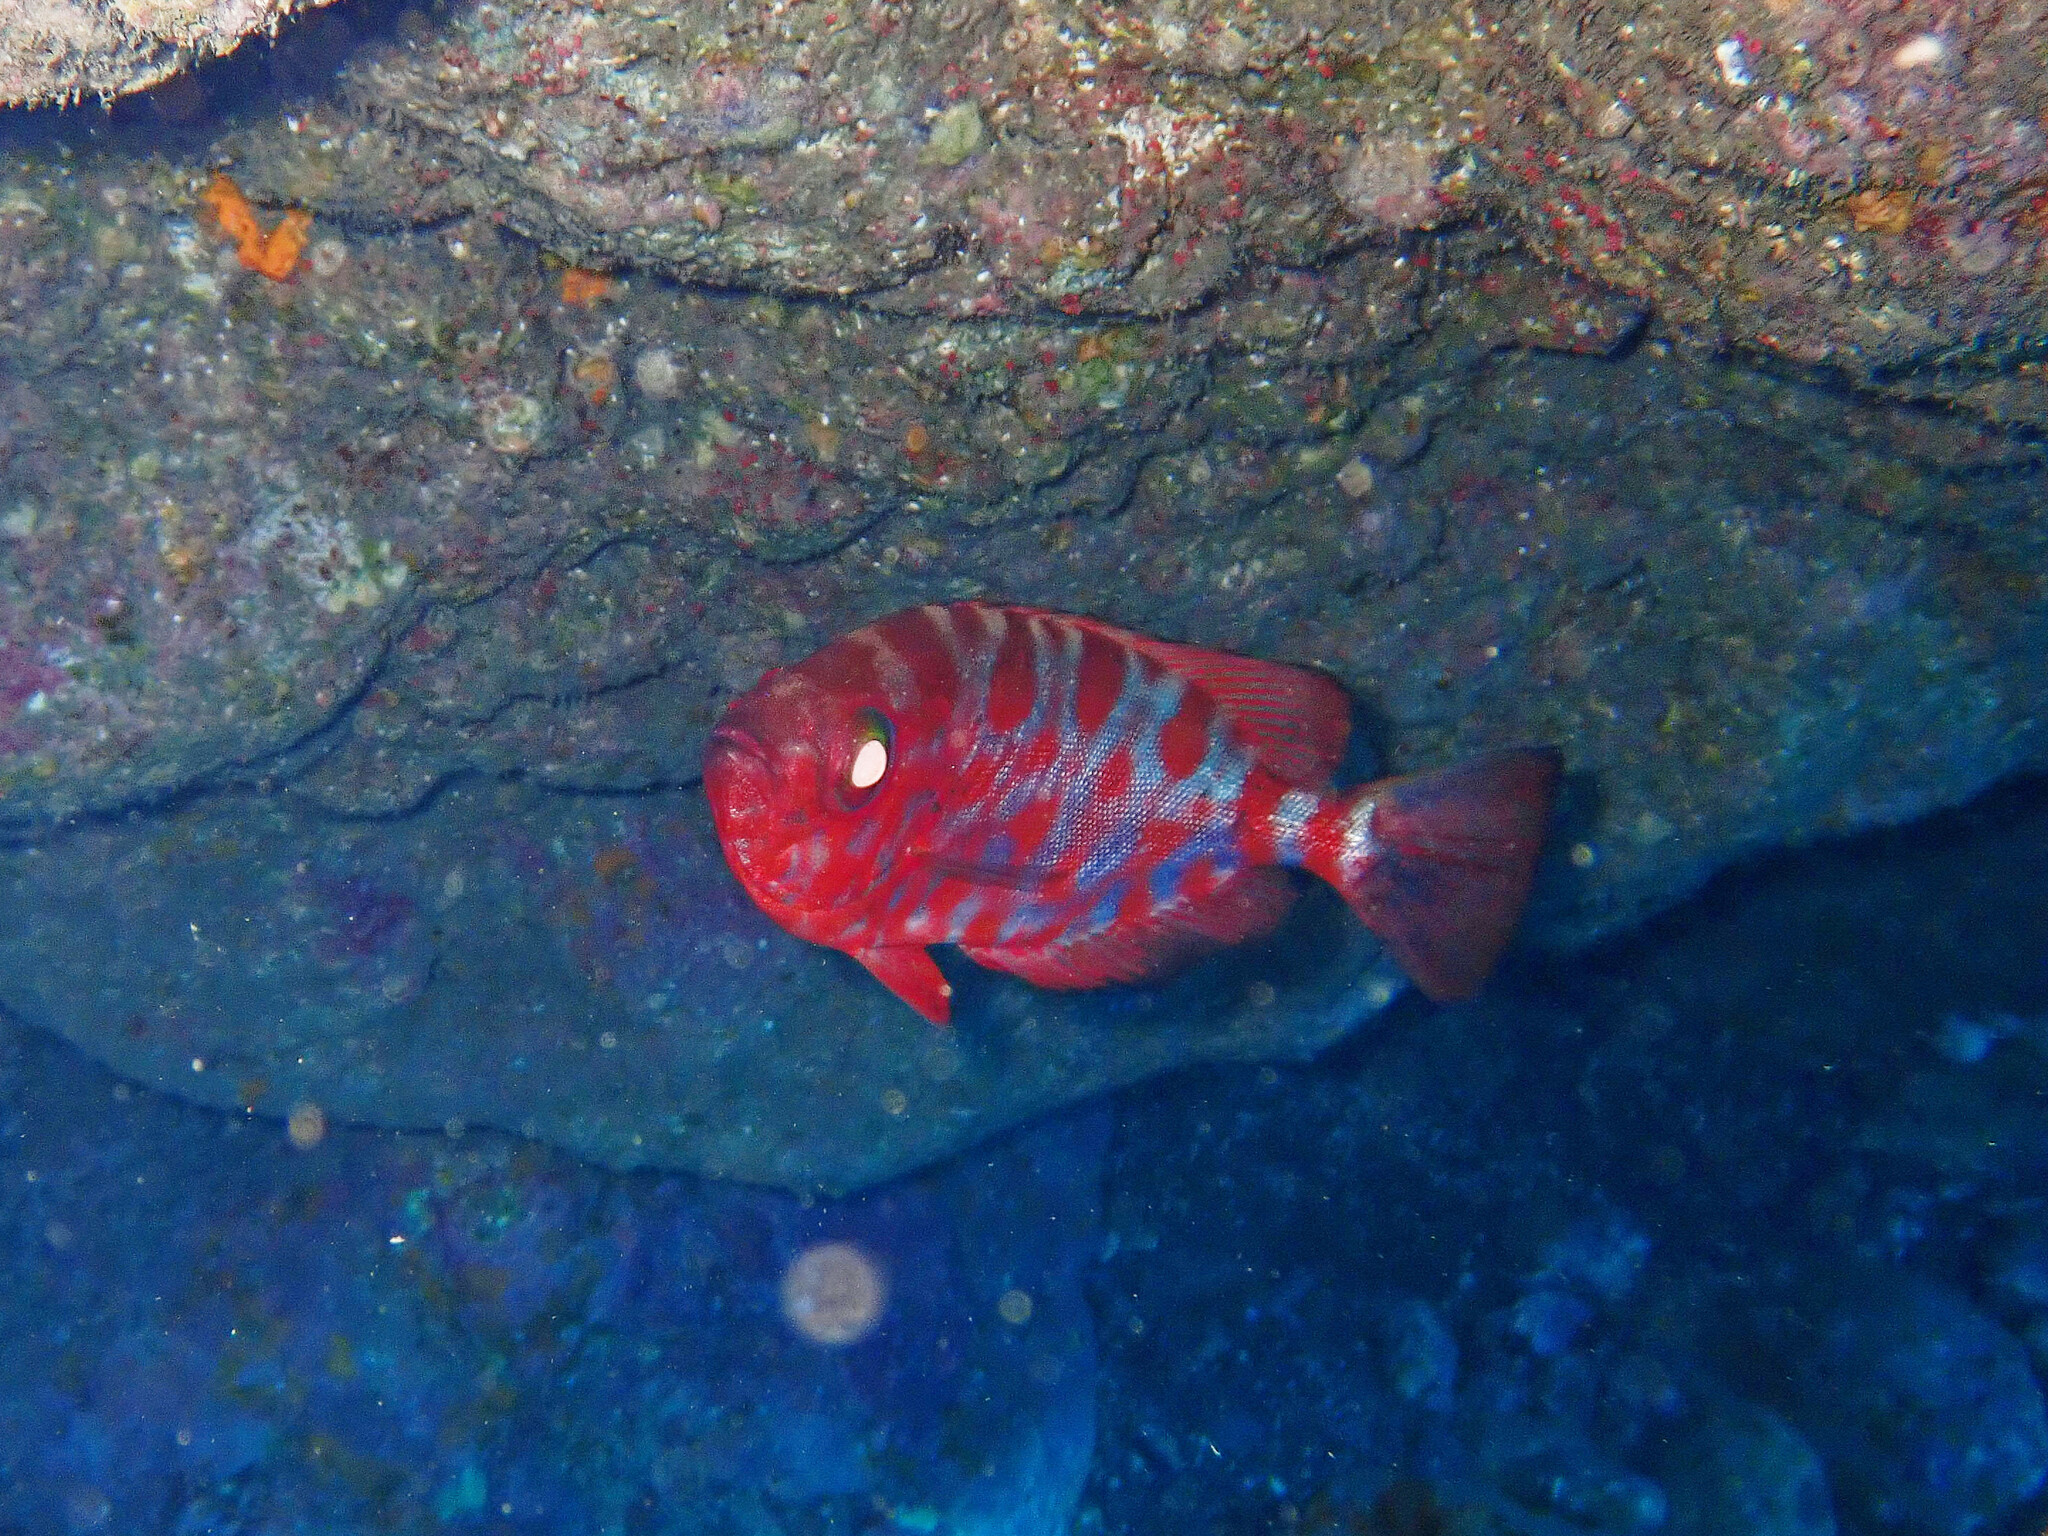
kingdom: Animalia
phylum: Chordata
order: Perciformes
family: Priacanthidae
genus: Heteropriacanthus
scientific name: Heteropriacanthus fulgens
